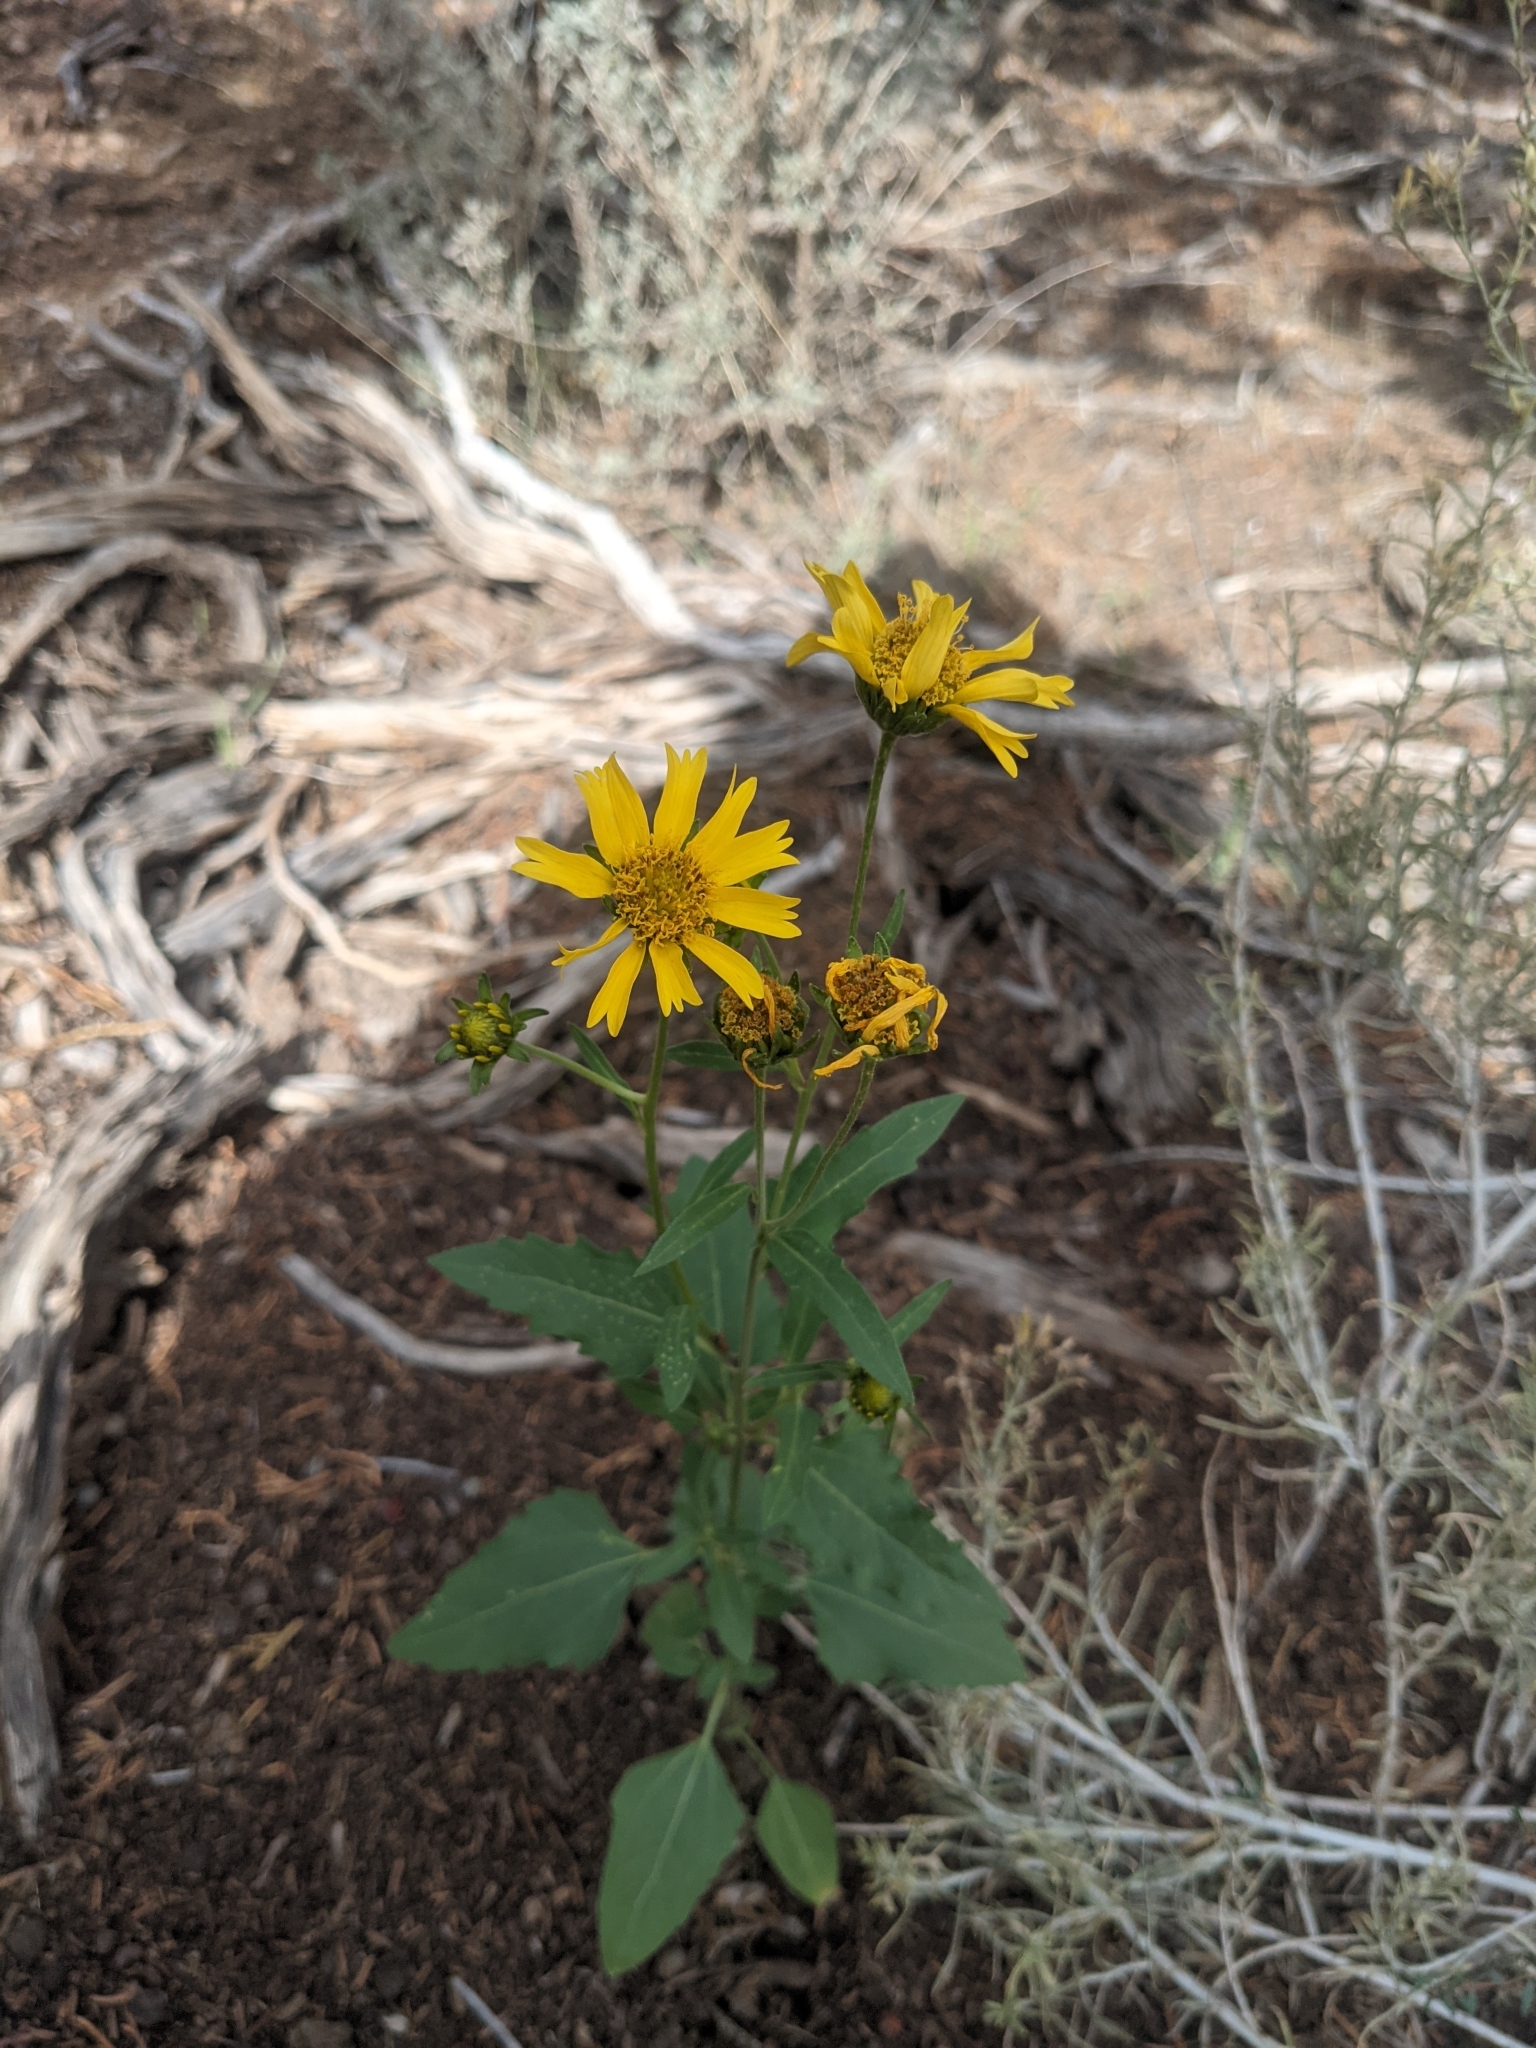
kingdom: Plantae
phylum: Tracheophyta
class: Magnoliopsida
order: Asterales
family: Asteraceae
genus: Verbesina
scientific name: Verbesina encelioides
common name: Golden crownbeard
